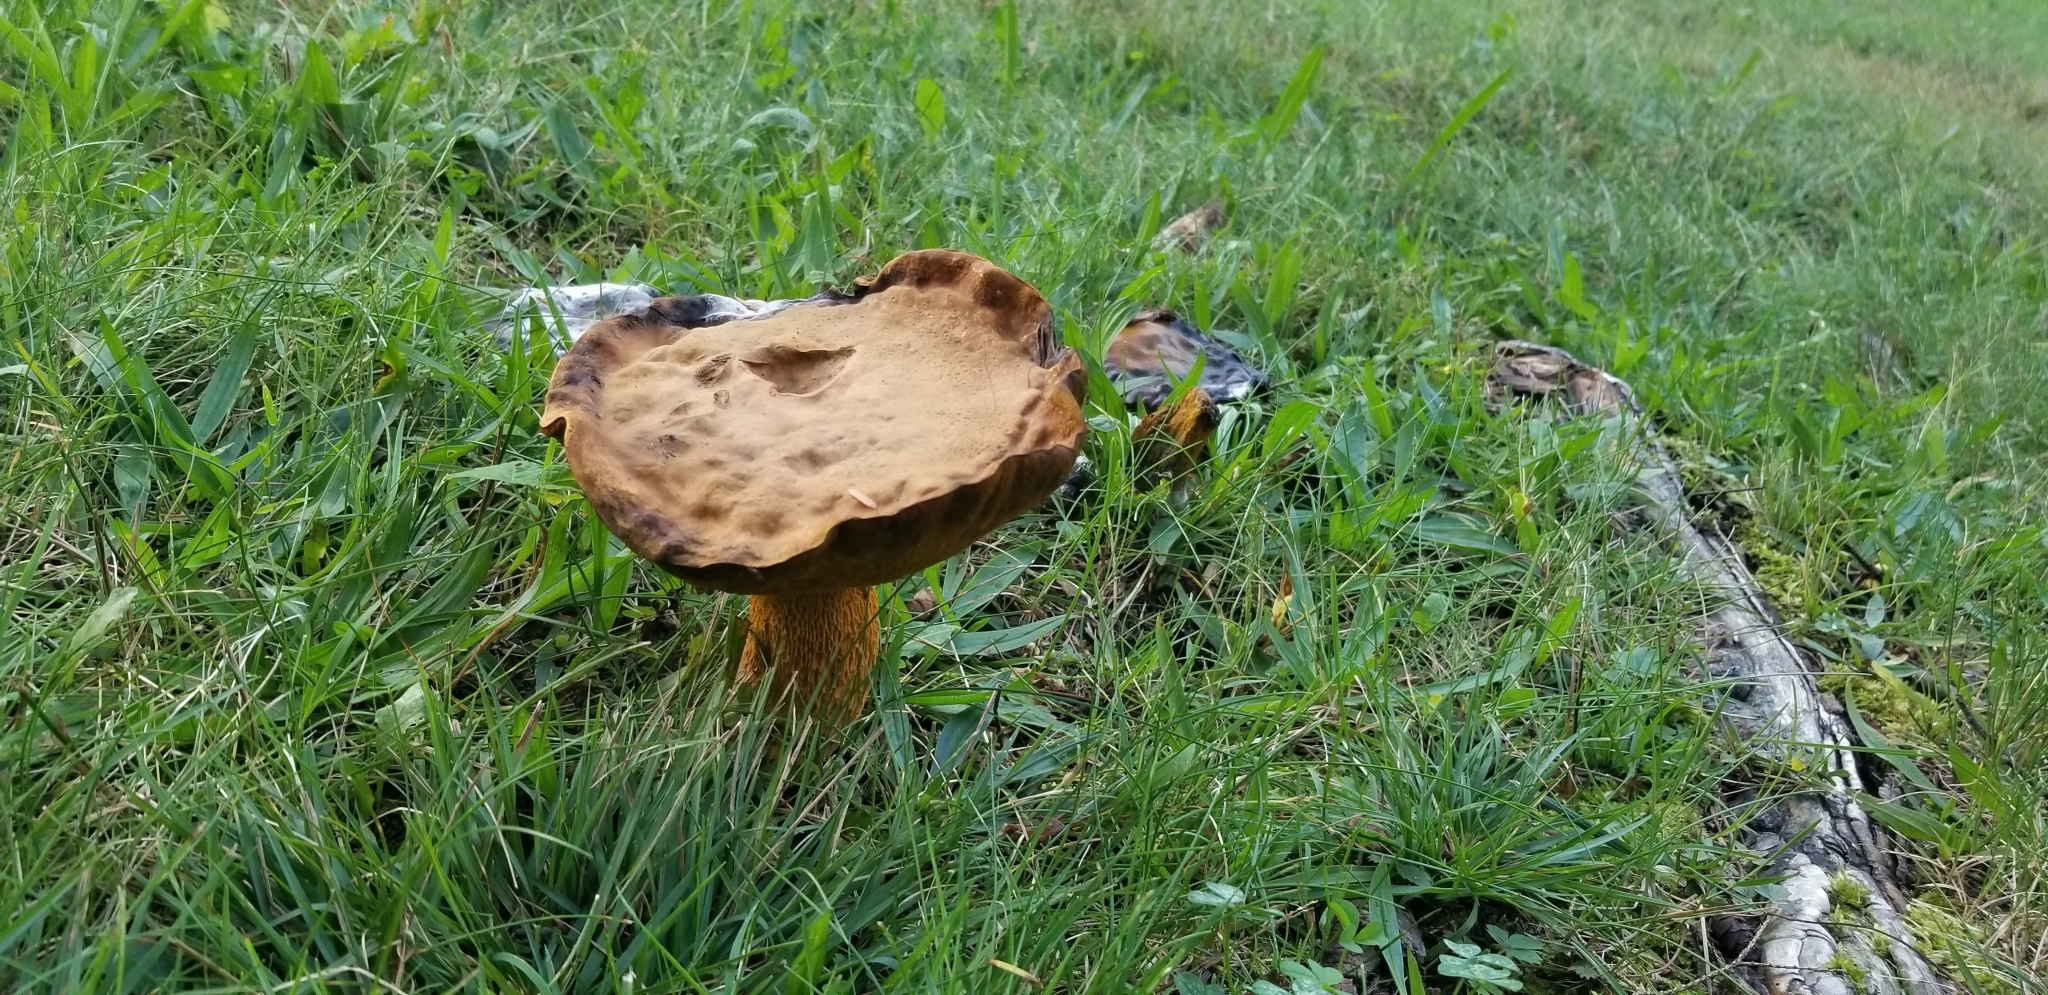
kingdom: Fungi
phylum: Basidiomycota
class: Agaricomycetes
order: Boletales
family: Boletaceae
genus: Retiboletus
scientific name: Retiboletus ornatipes
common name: Ornate-stalked bolete
